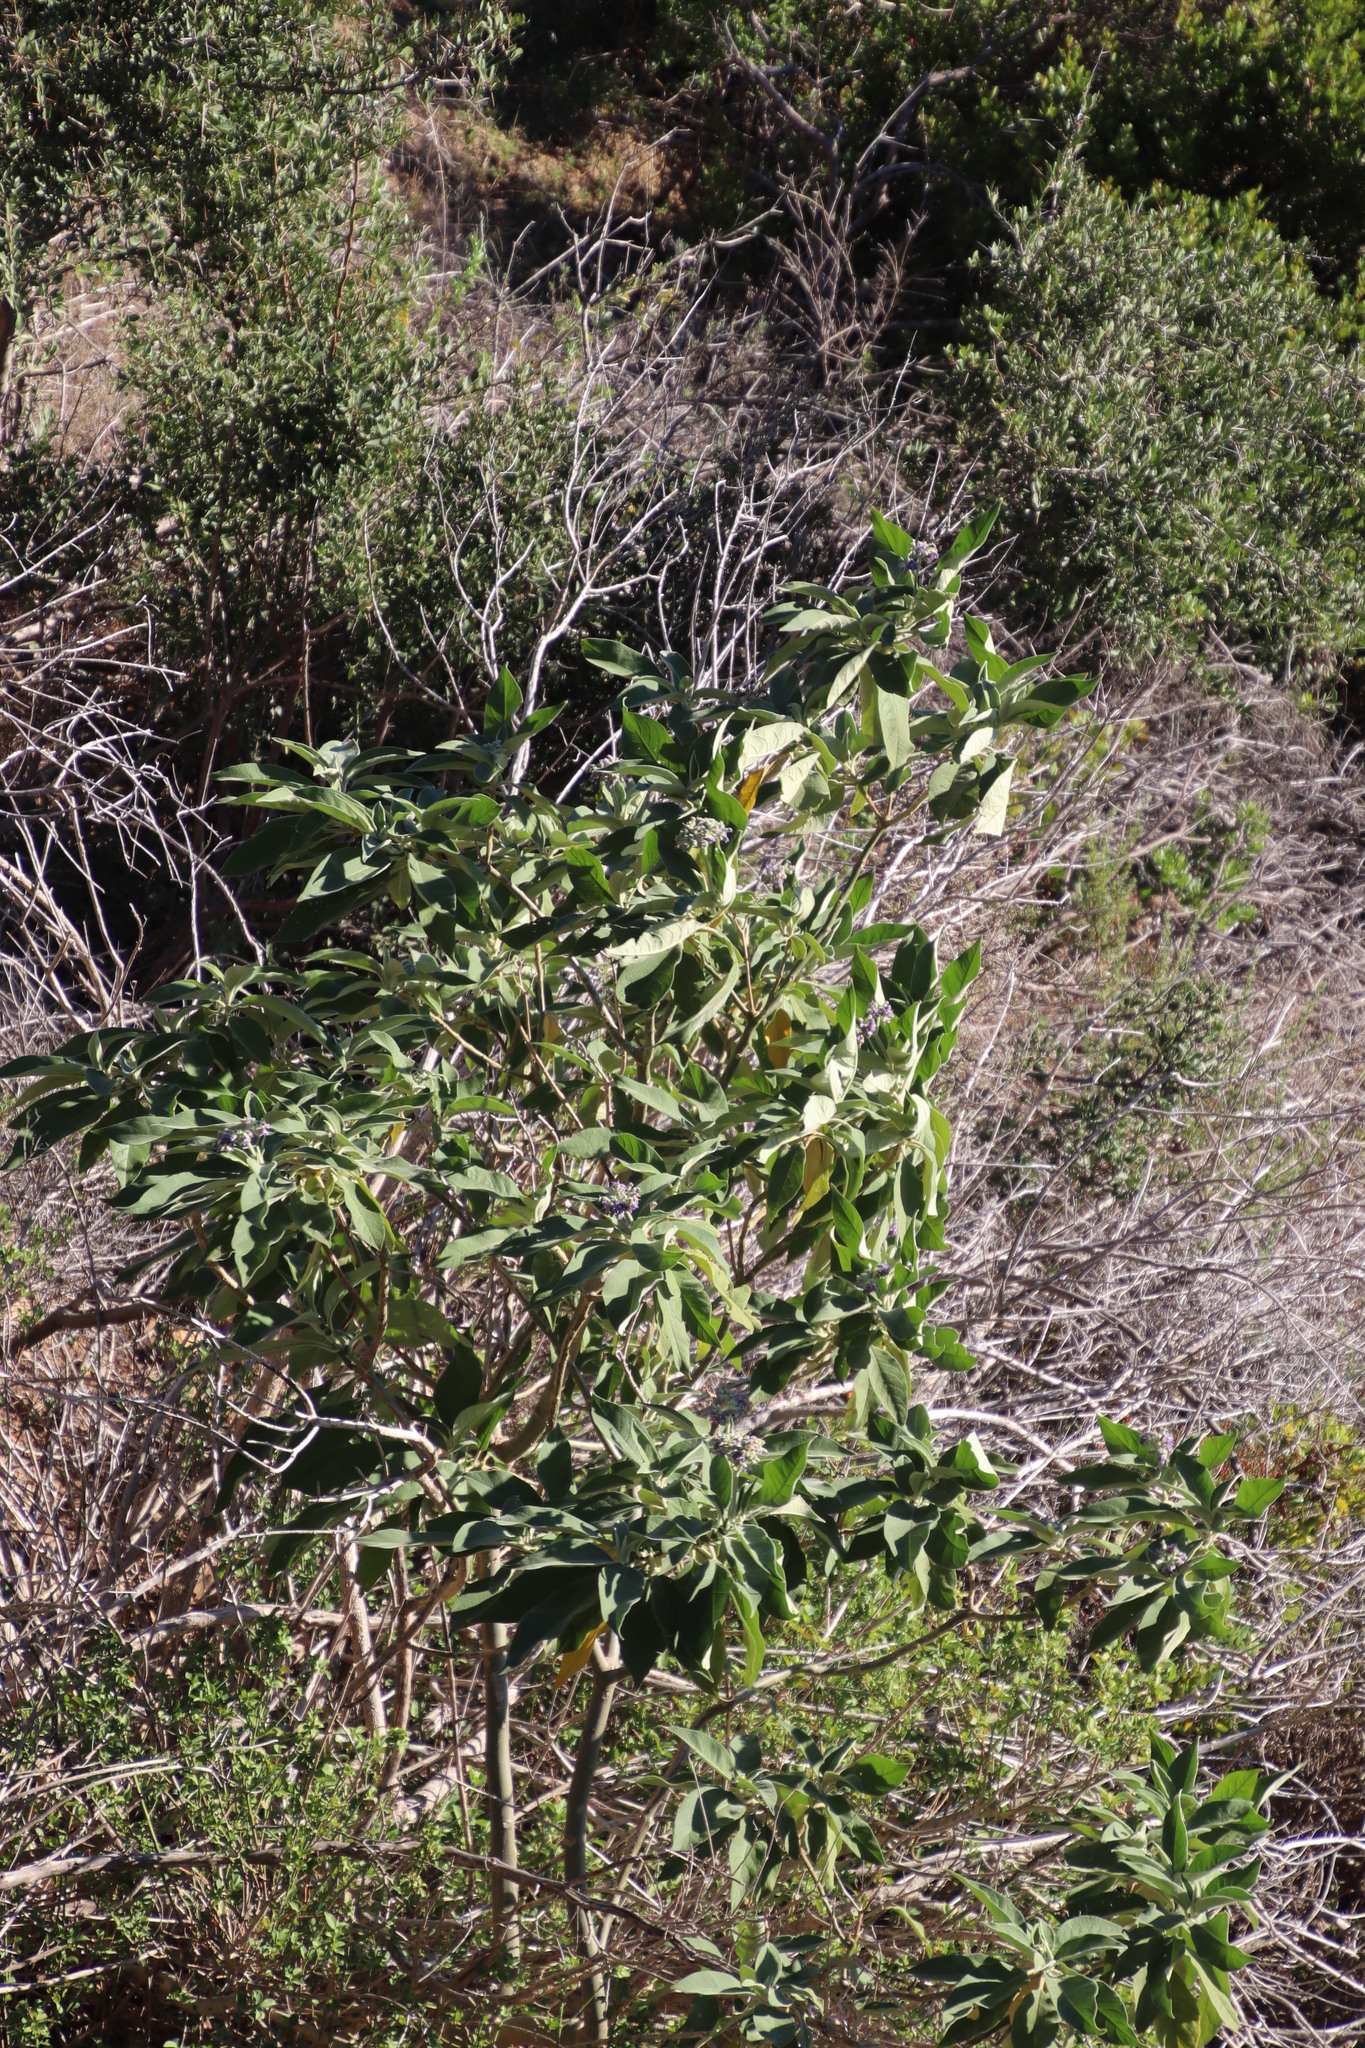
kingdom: Plantae
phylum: Tracheophyta
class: Magnoliopsida
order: Solanales
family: Solanaceae
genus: Solanum
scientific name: Solanum mauritianum
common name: Earleaf nightshade
